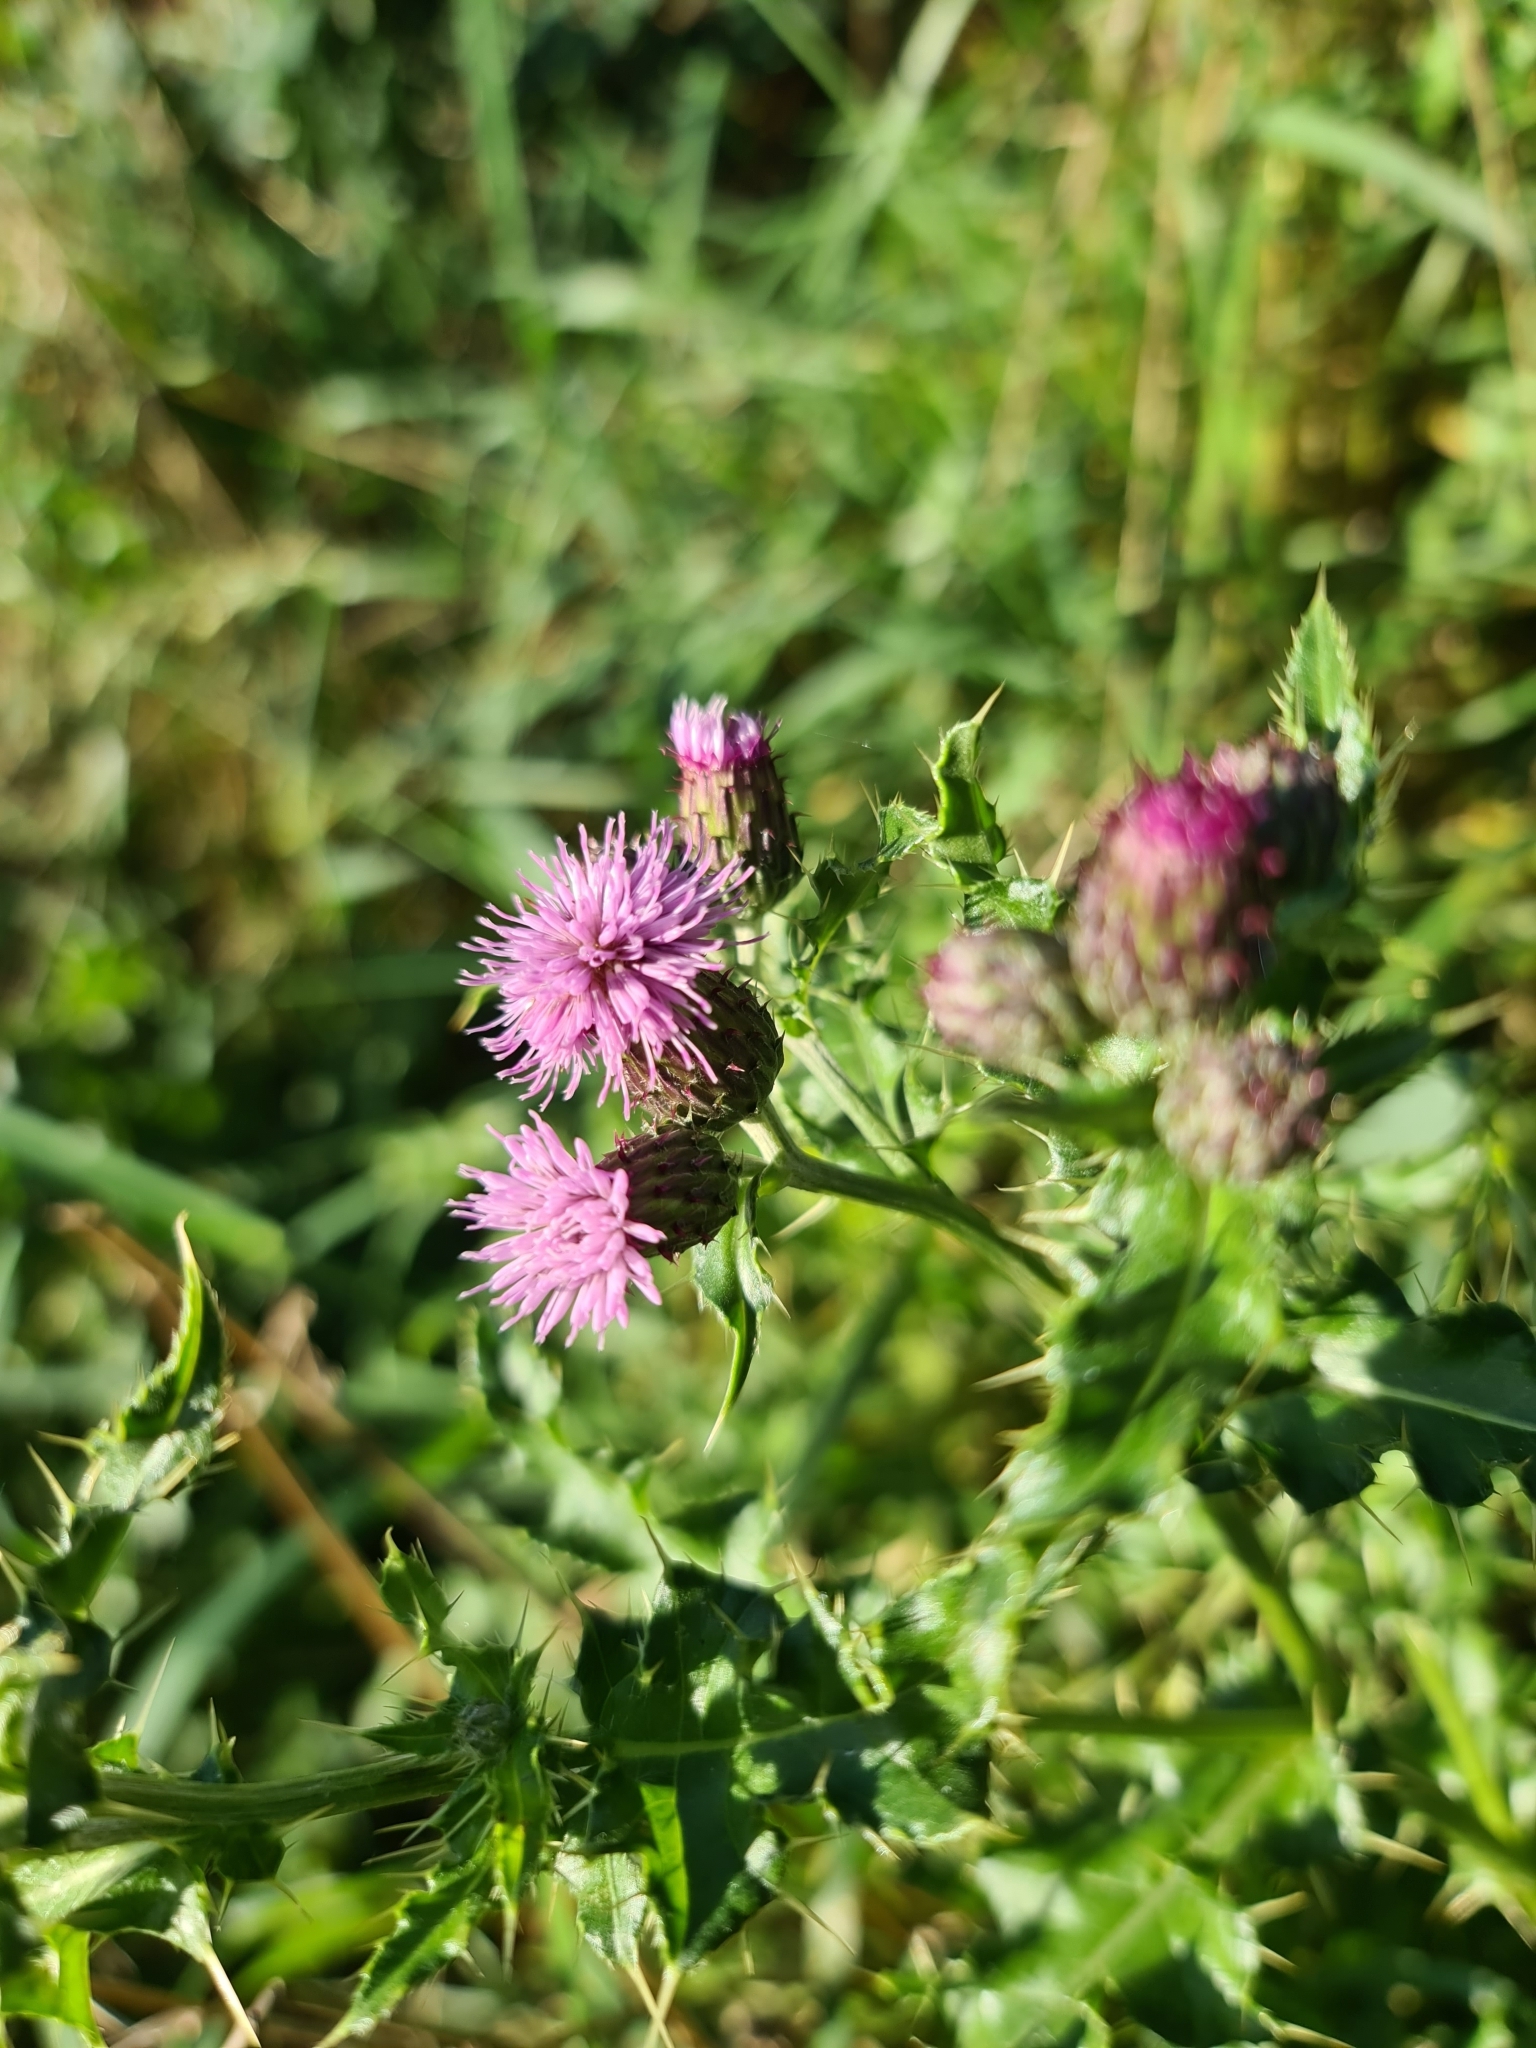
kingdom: Plantae
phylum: Tracheophyta
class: Magnoliopsida
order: Asterales
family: Asteraceae
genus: Cirsium
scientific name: Cirsium arvense
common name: Creeping thistle
